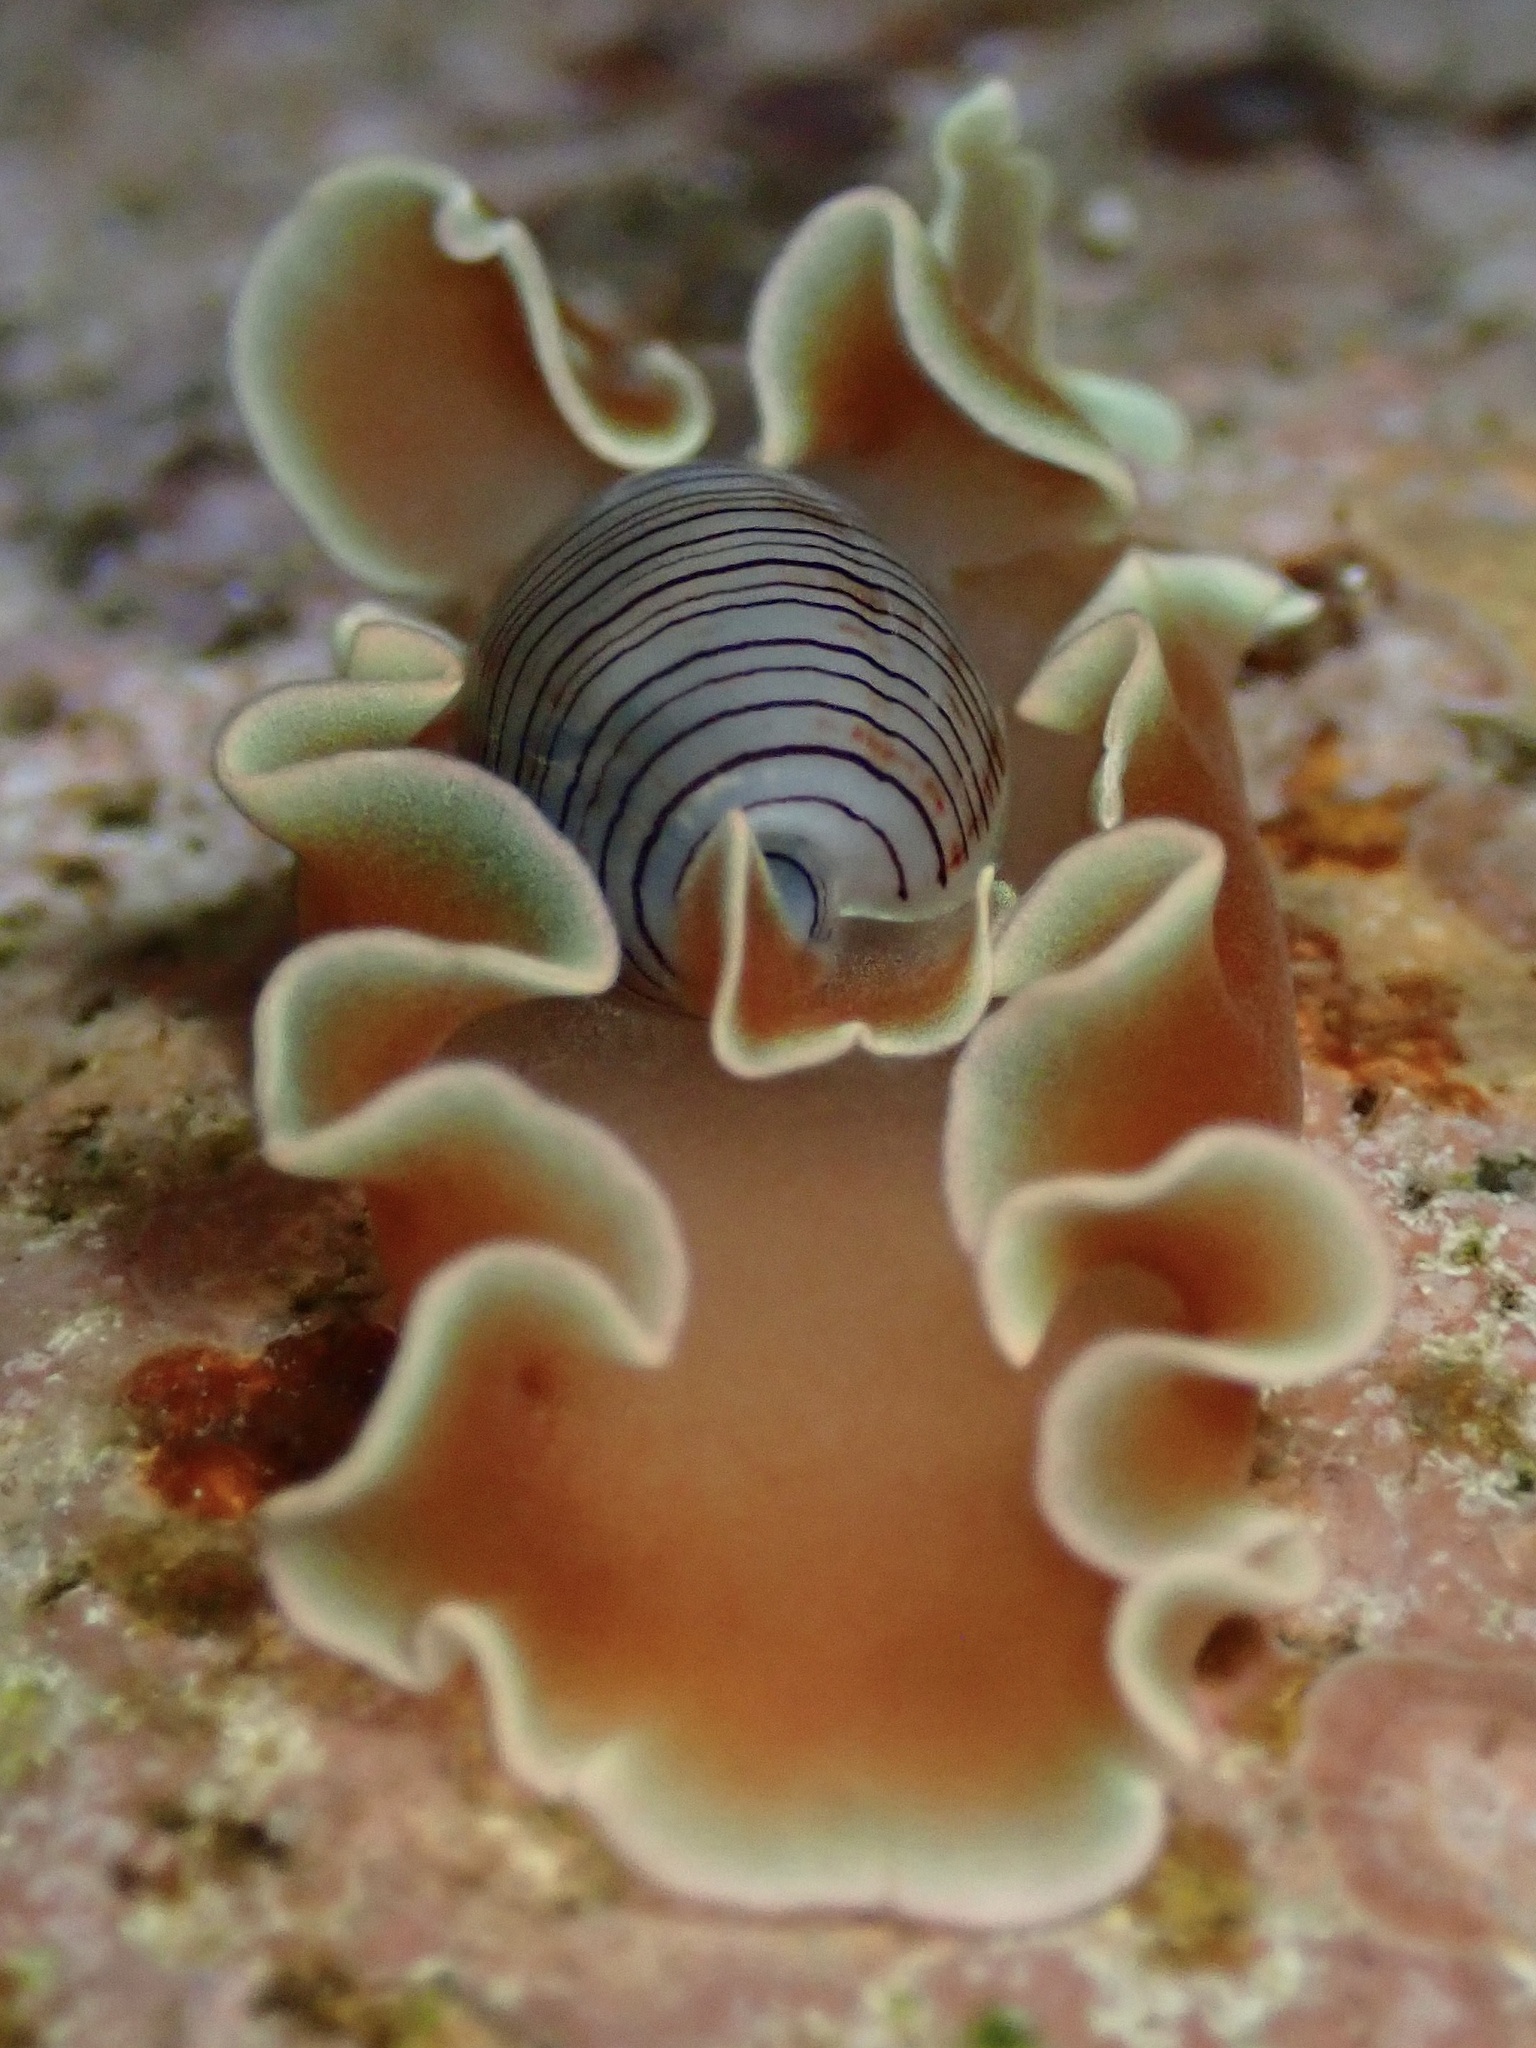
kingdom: Animalia
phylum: Mollusca
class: Gastropoda
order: Cephalaspidea
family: Aplustridae
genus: Hydatina
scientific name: Hydatina physis
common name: Brown-line paperbubble
